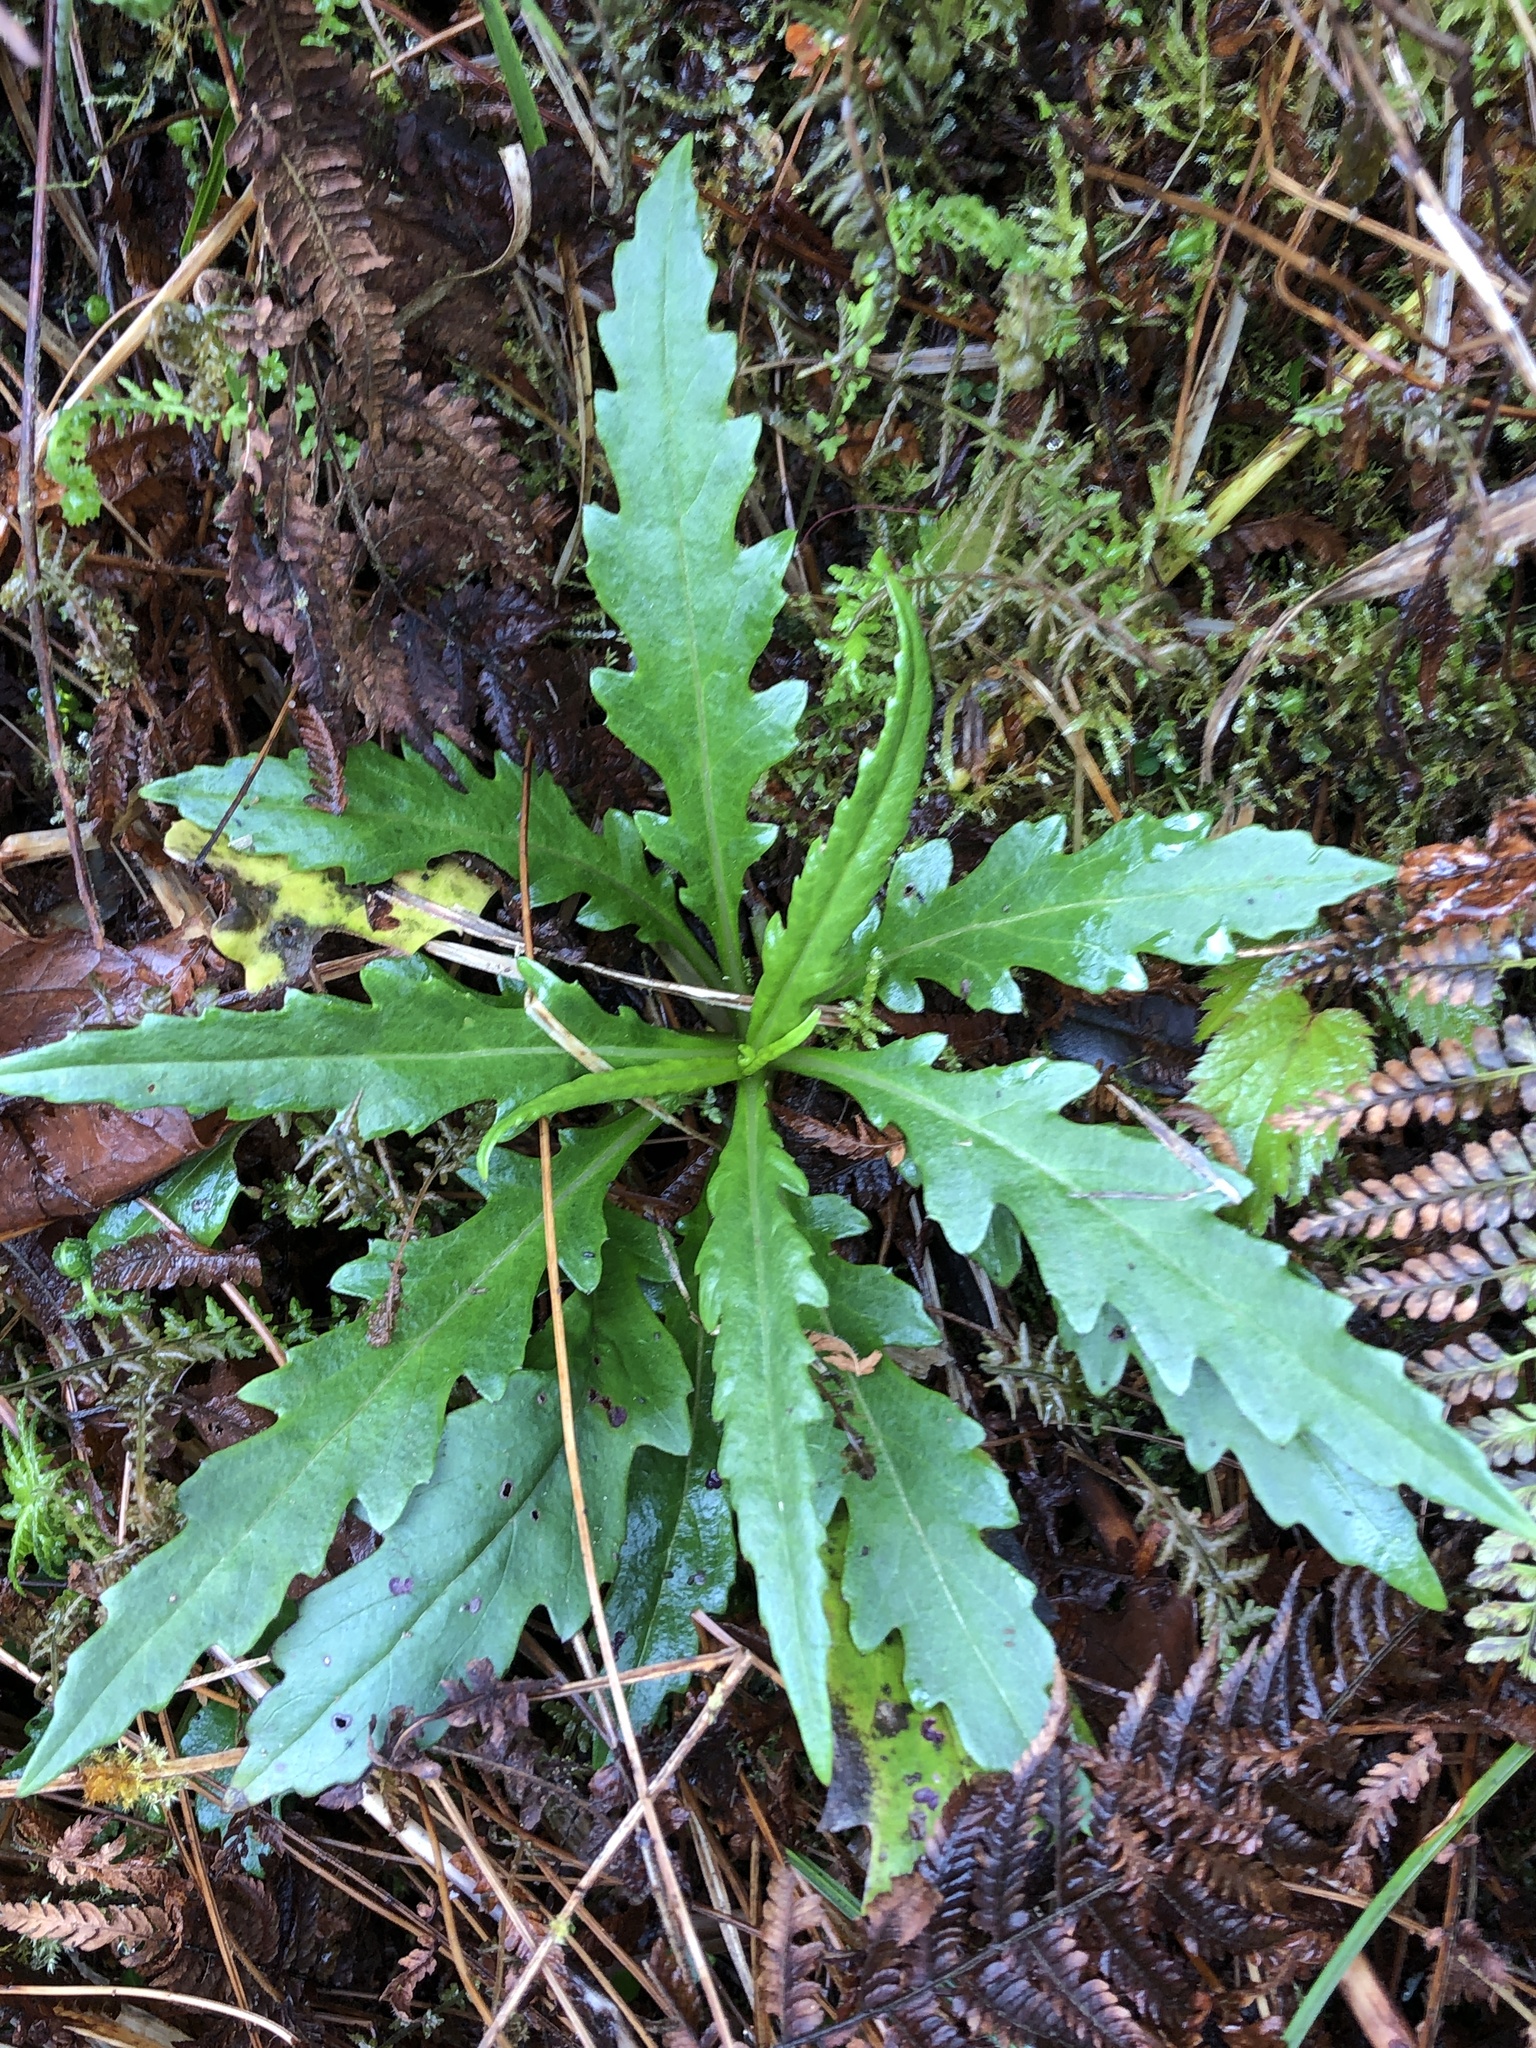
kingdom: Plantae
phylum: Tracheophyta
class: Magnoliopsida
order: Asterales
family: Asteraceae
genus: Jacobaea
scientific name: Jacobaea morrisonensis
